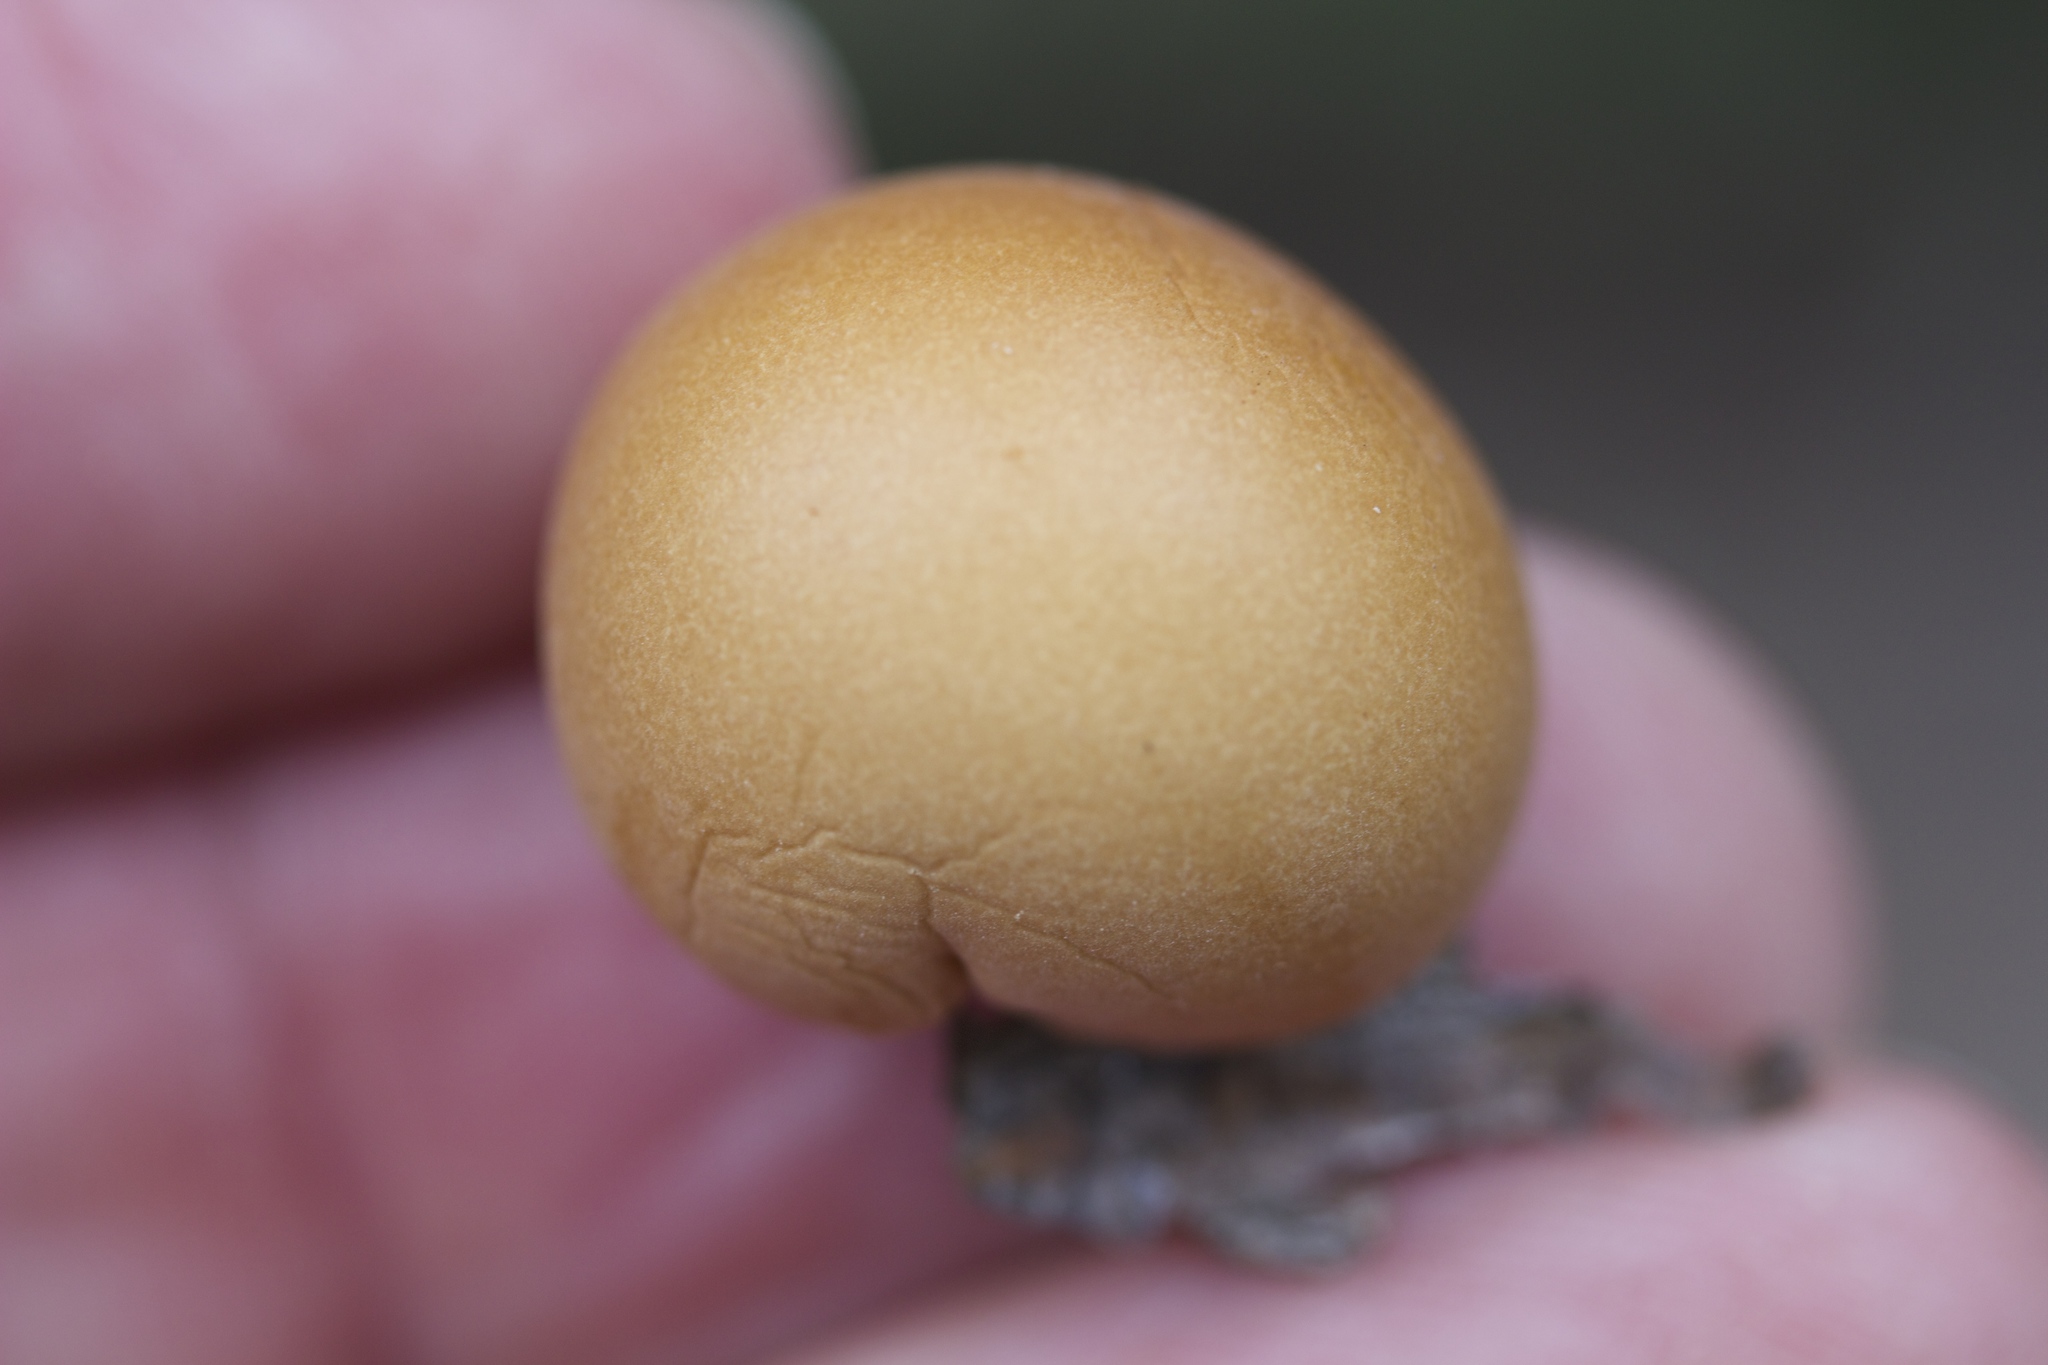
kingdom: Fungi
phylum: Basidiomycota
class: Agaricomycetes
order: Polyporales
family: Polyporaceae
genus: Cryptoporus
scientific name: Cryptoporus volvatus
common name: Veiled polypore
